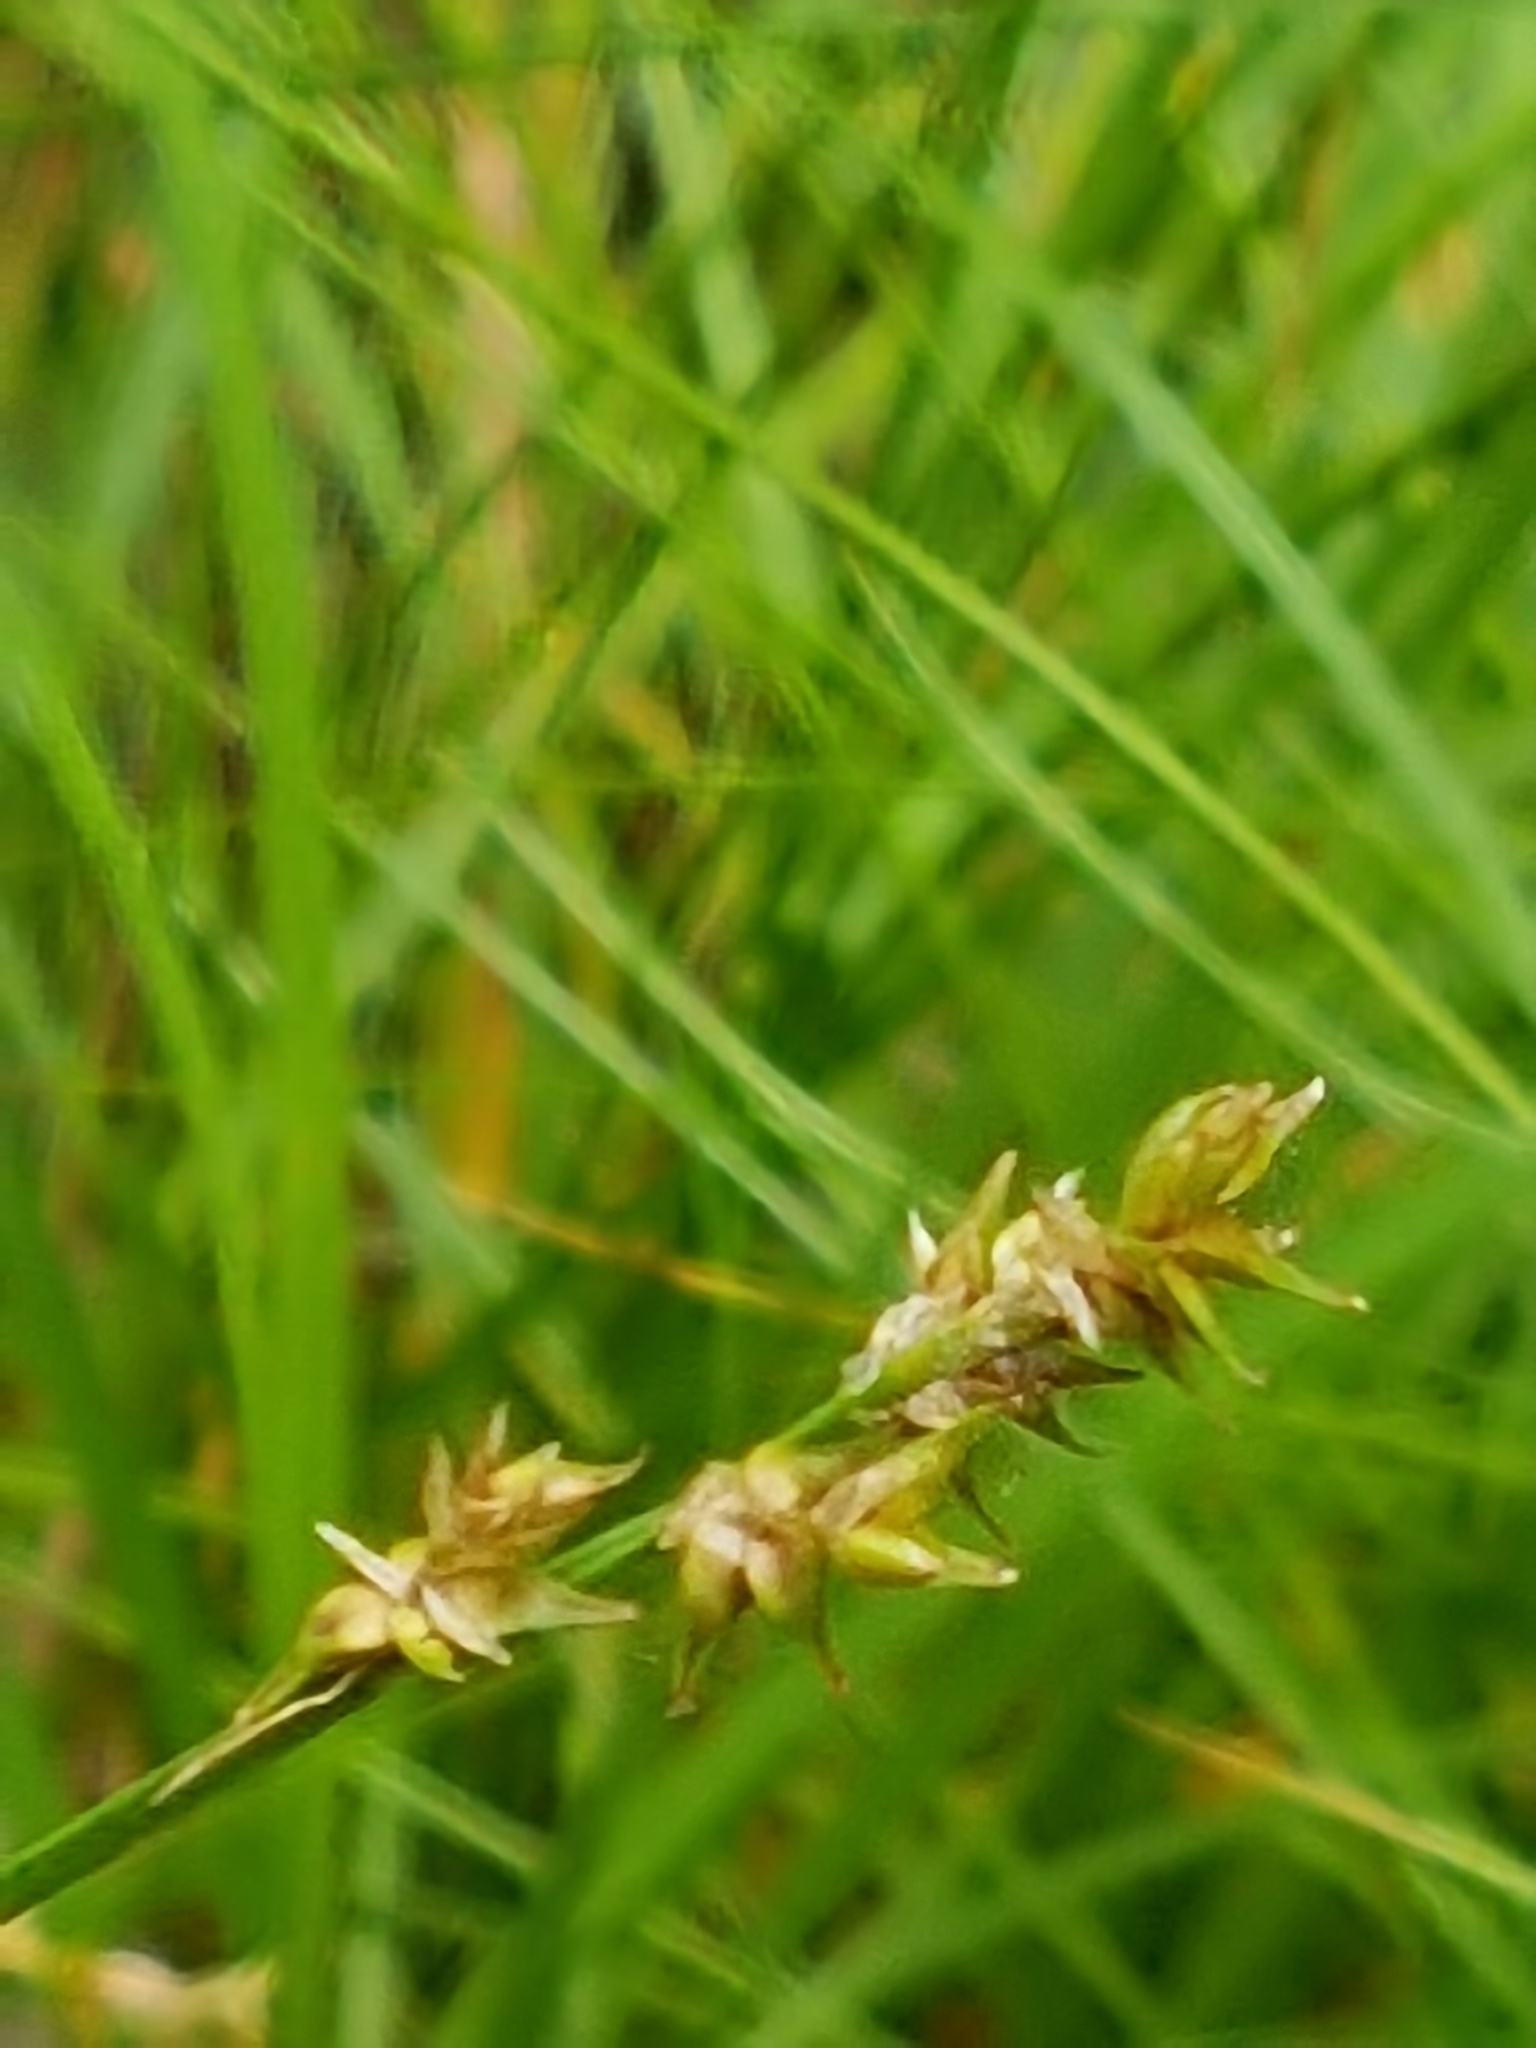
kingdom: Plantae
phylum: Tracheophyta
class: Liliopsida
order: Poales
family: Cyperaceae
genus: Carex
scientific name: Carex echinata
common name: Star sedge
